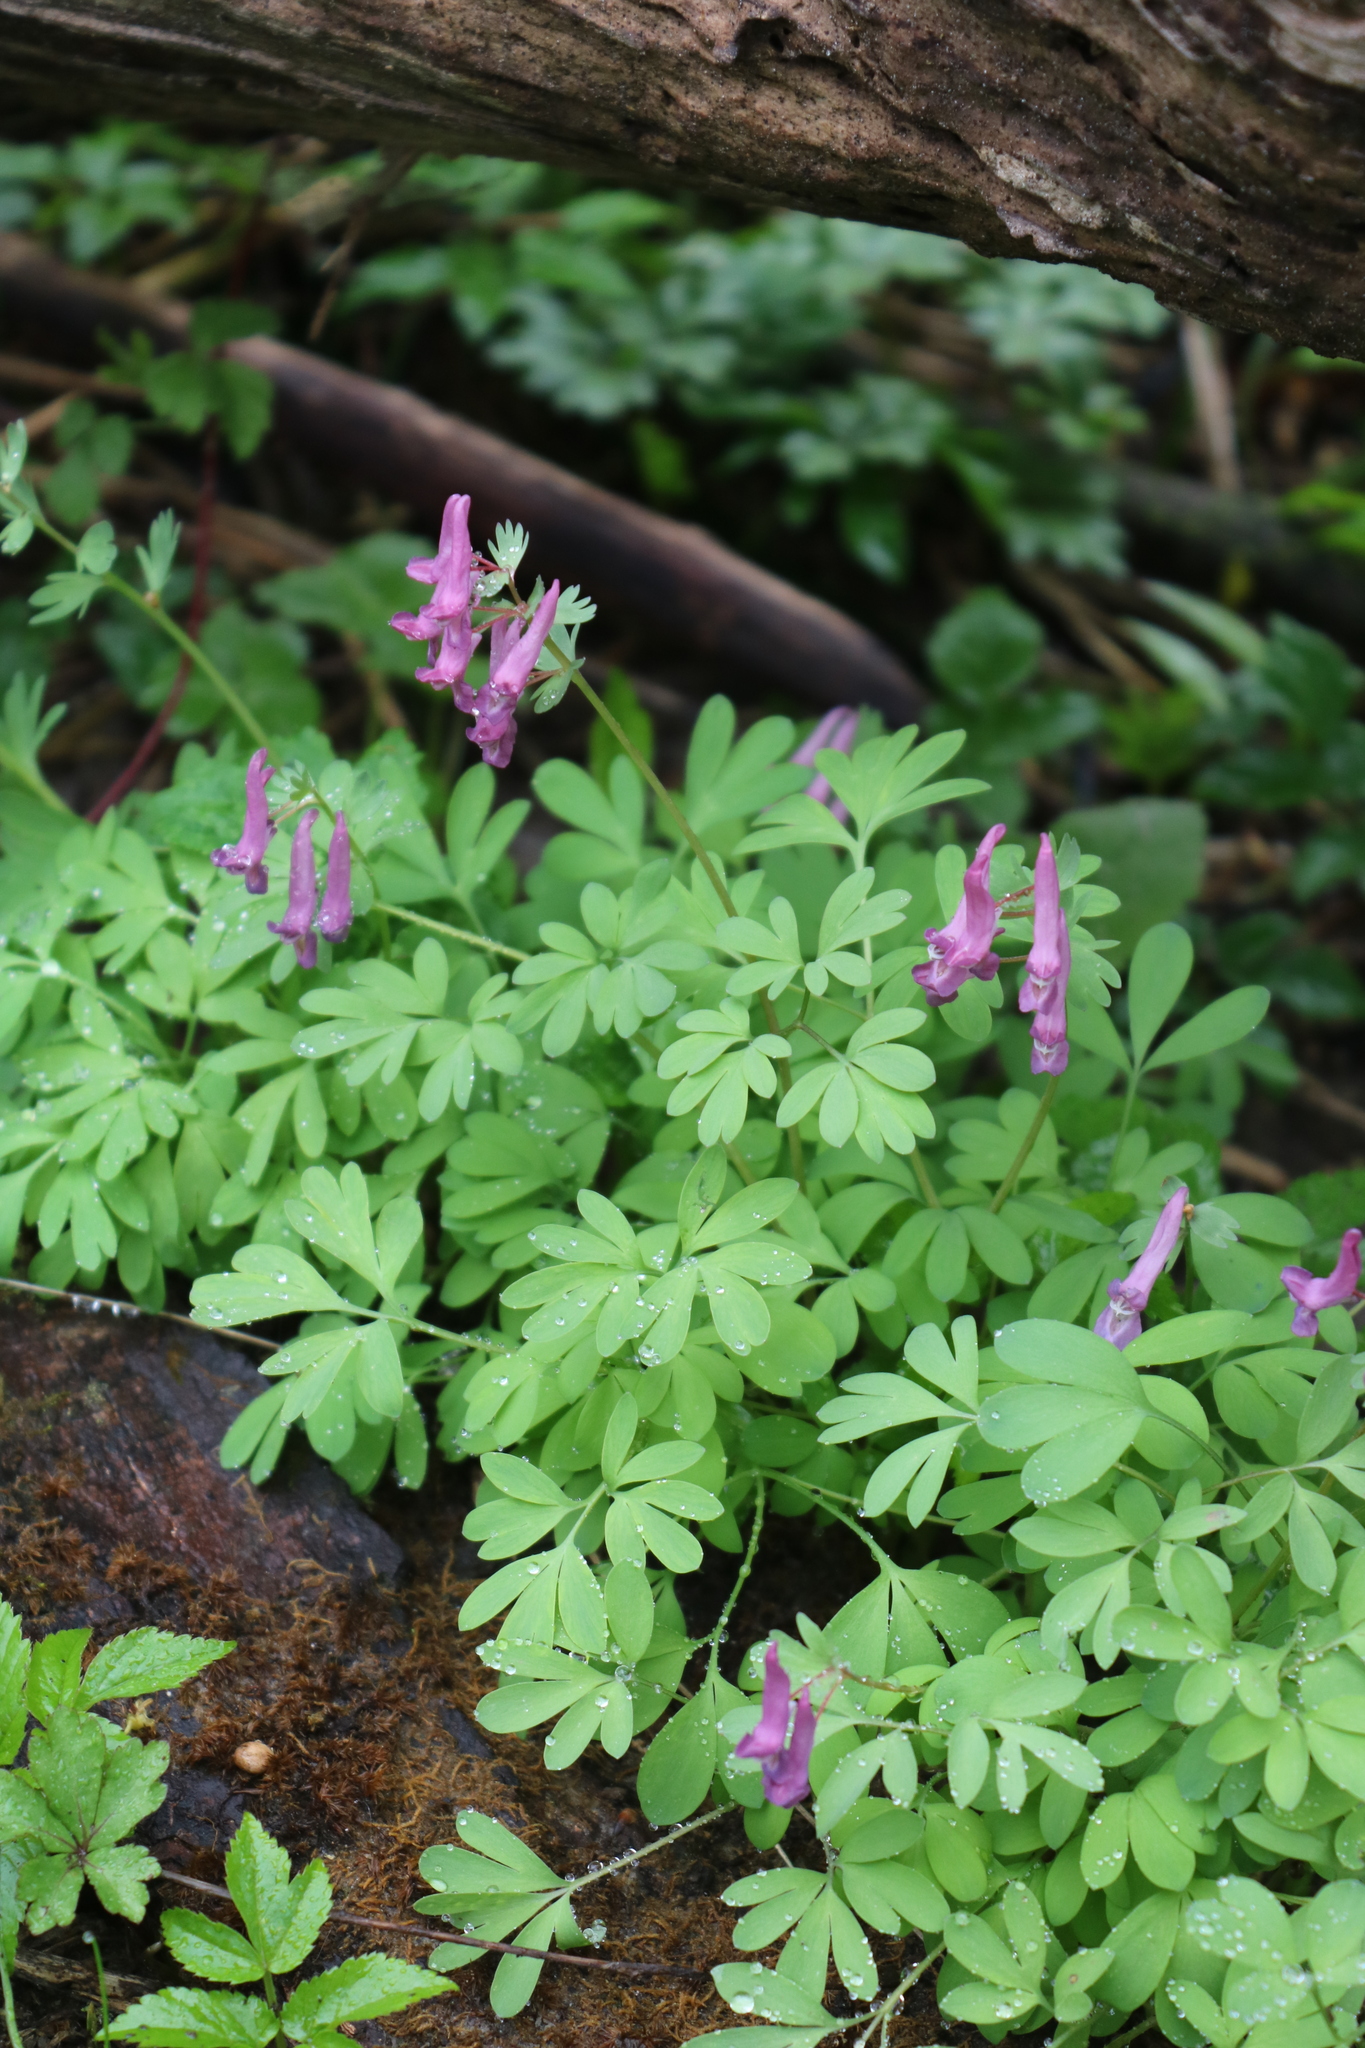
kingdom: Plantae
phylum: Tracheophyta
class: Magnoliopsida
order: Ranunculales
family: Papaveraceae
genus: Corydalis
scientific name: Corydalis solida
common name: Bird-in-a-bush
